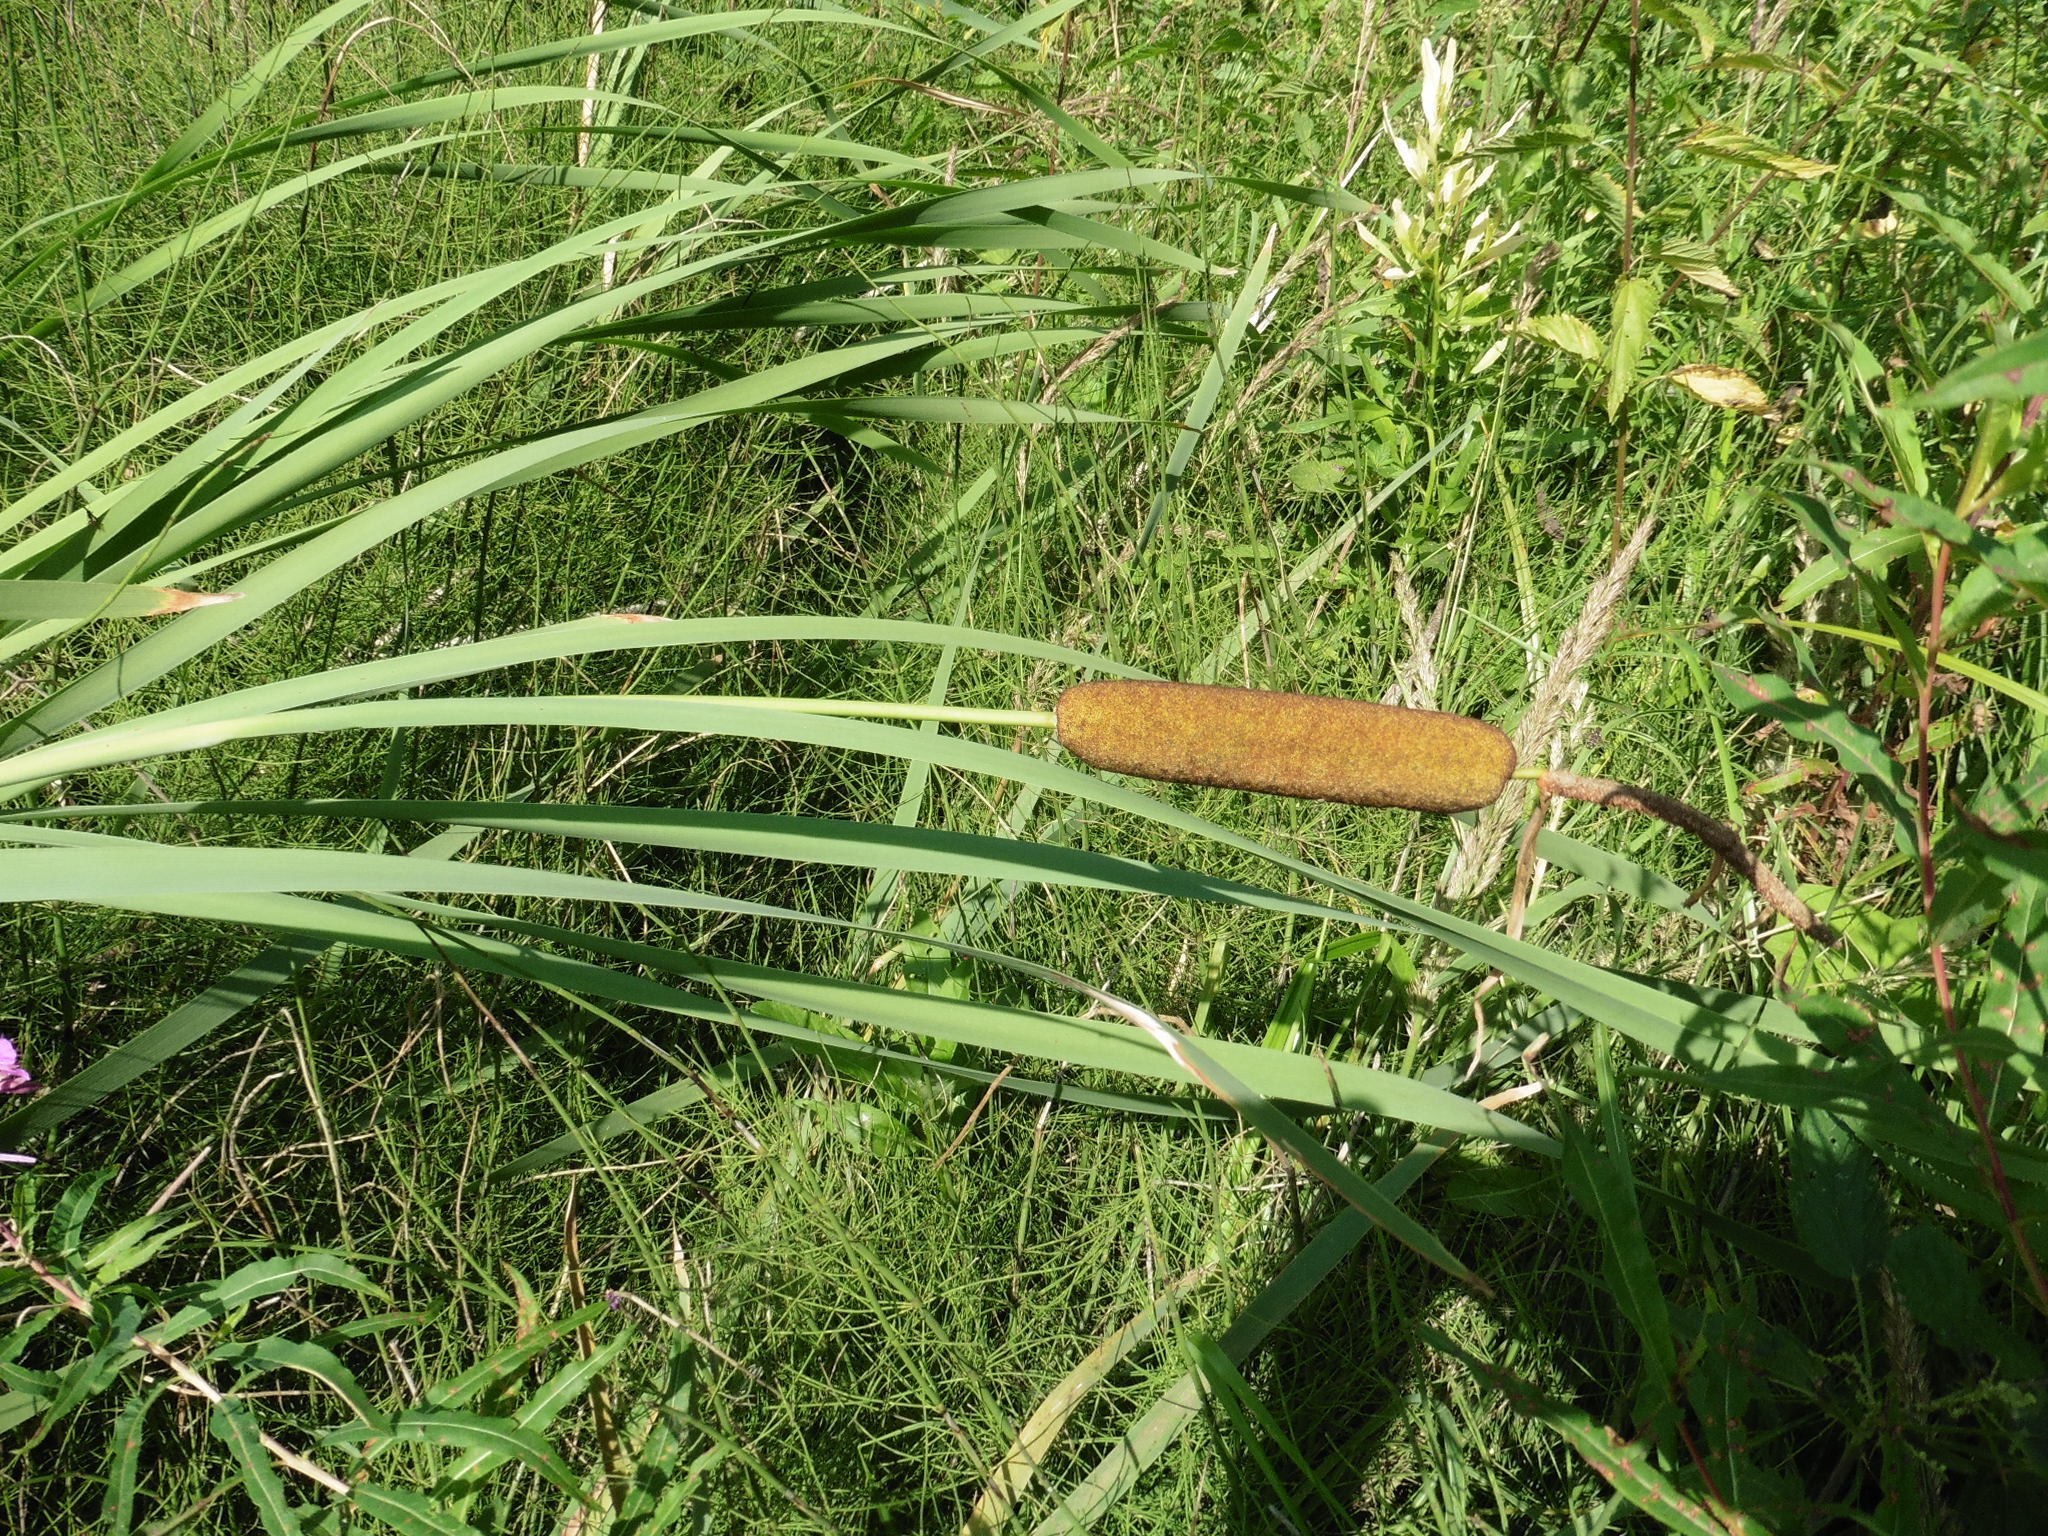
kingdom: Plantae
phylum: Tracheophyta
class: Liliopsida
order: Poales
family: Typhaceae
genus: Typha
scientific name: Typha latifolia
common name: Broadleaf cattail
